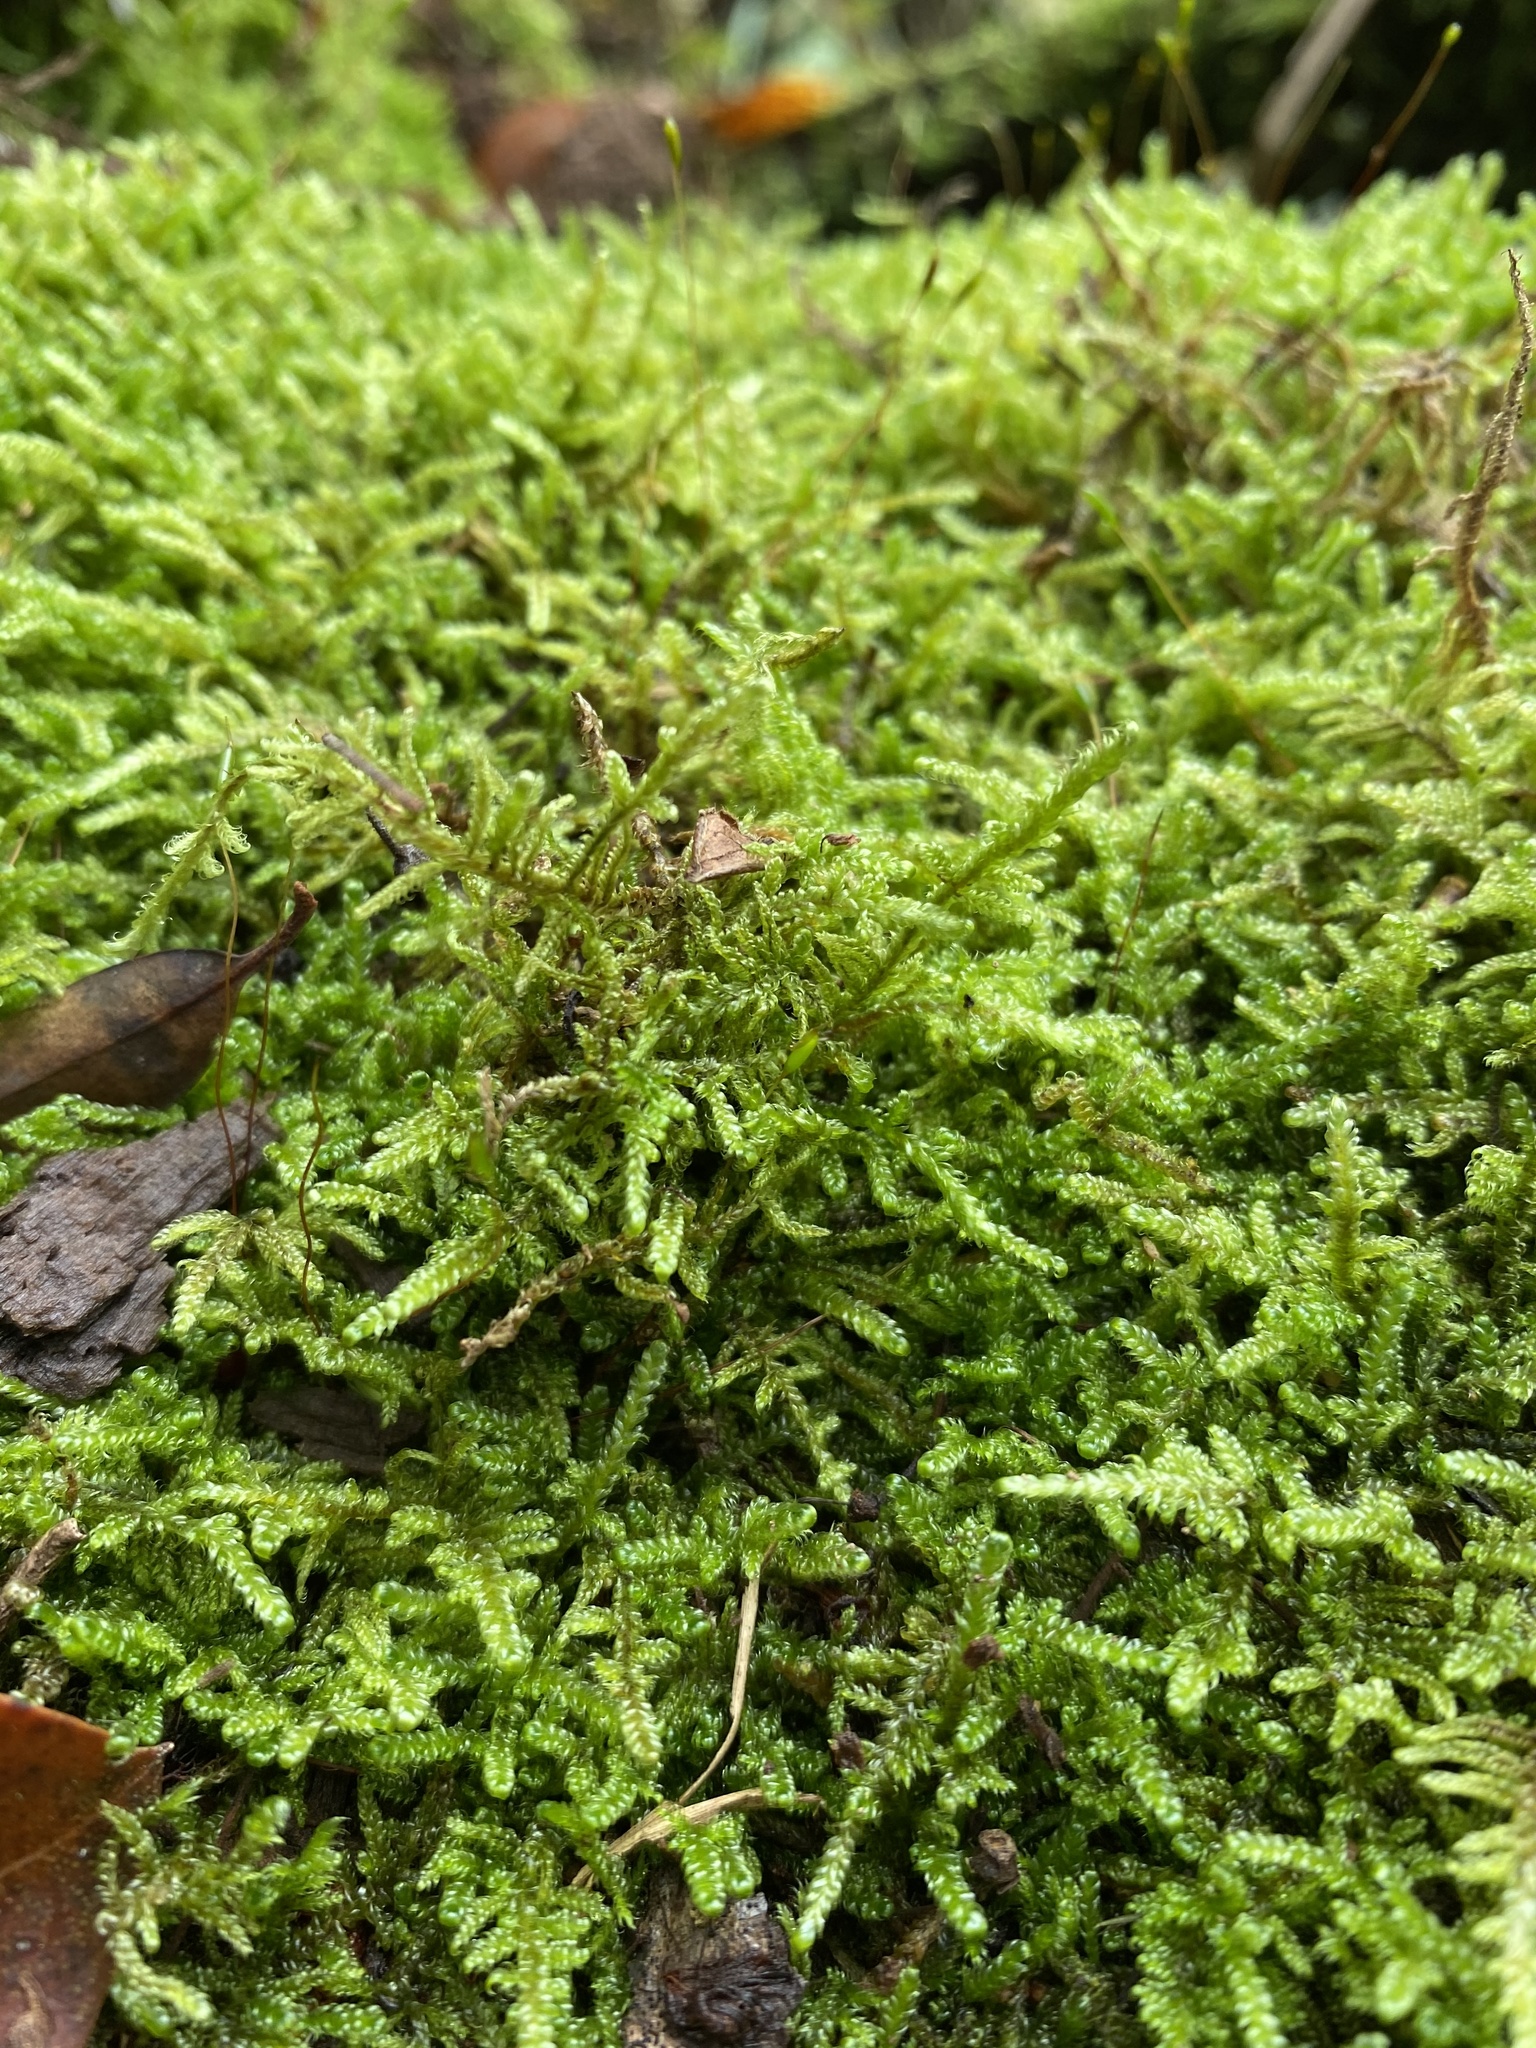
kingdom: Plantae
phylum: Bryophyta
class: Bryopsida
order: Hypnales
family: Callicladiaceae
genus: Callicladium
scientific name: Callicladium imponens
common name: Brocade moss
